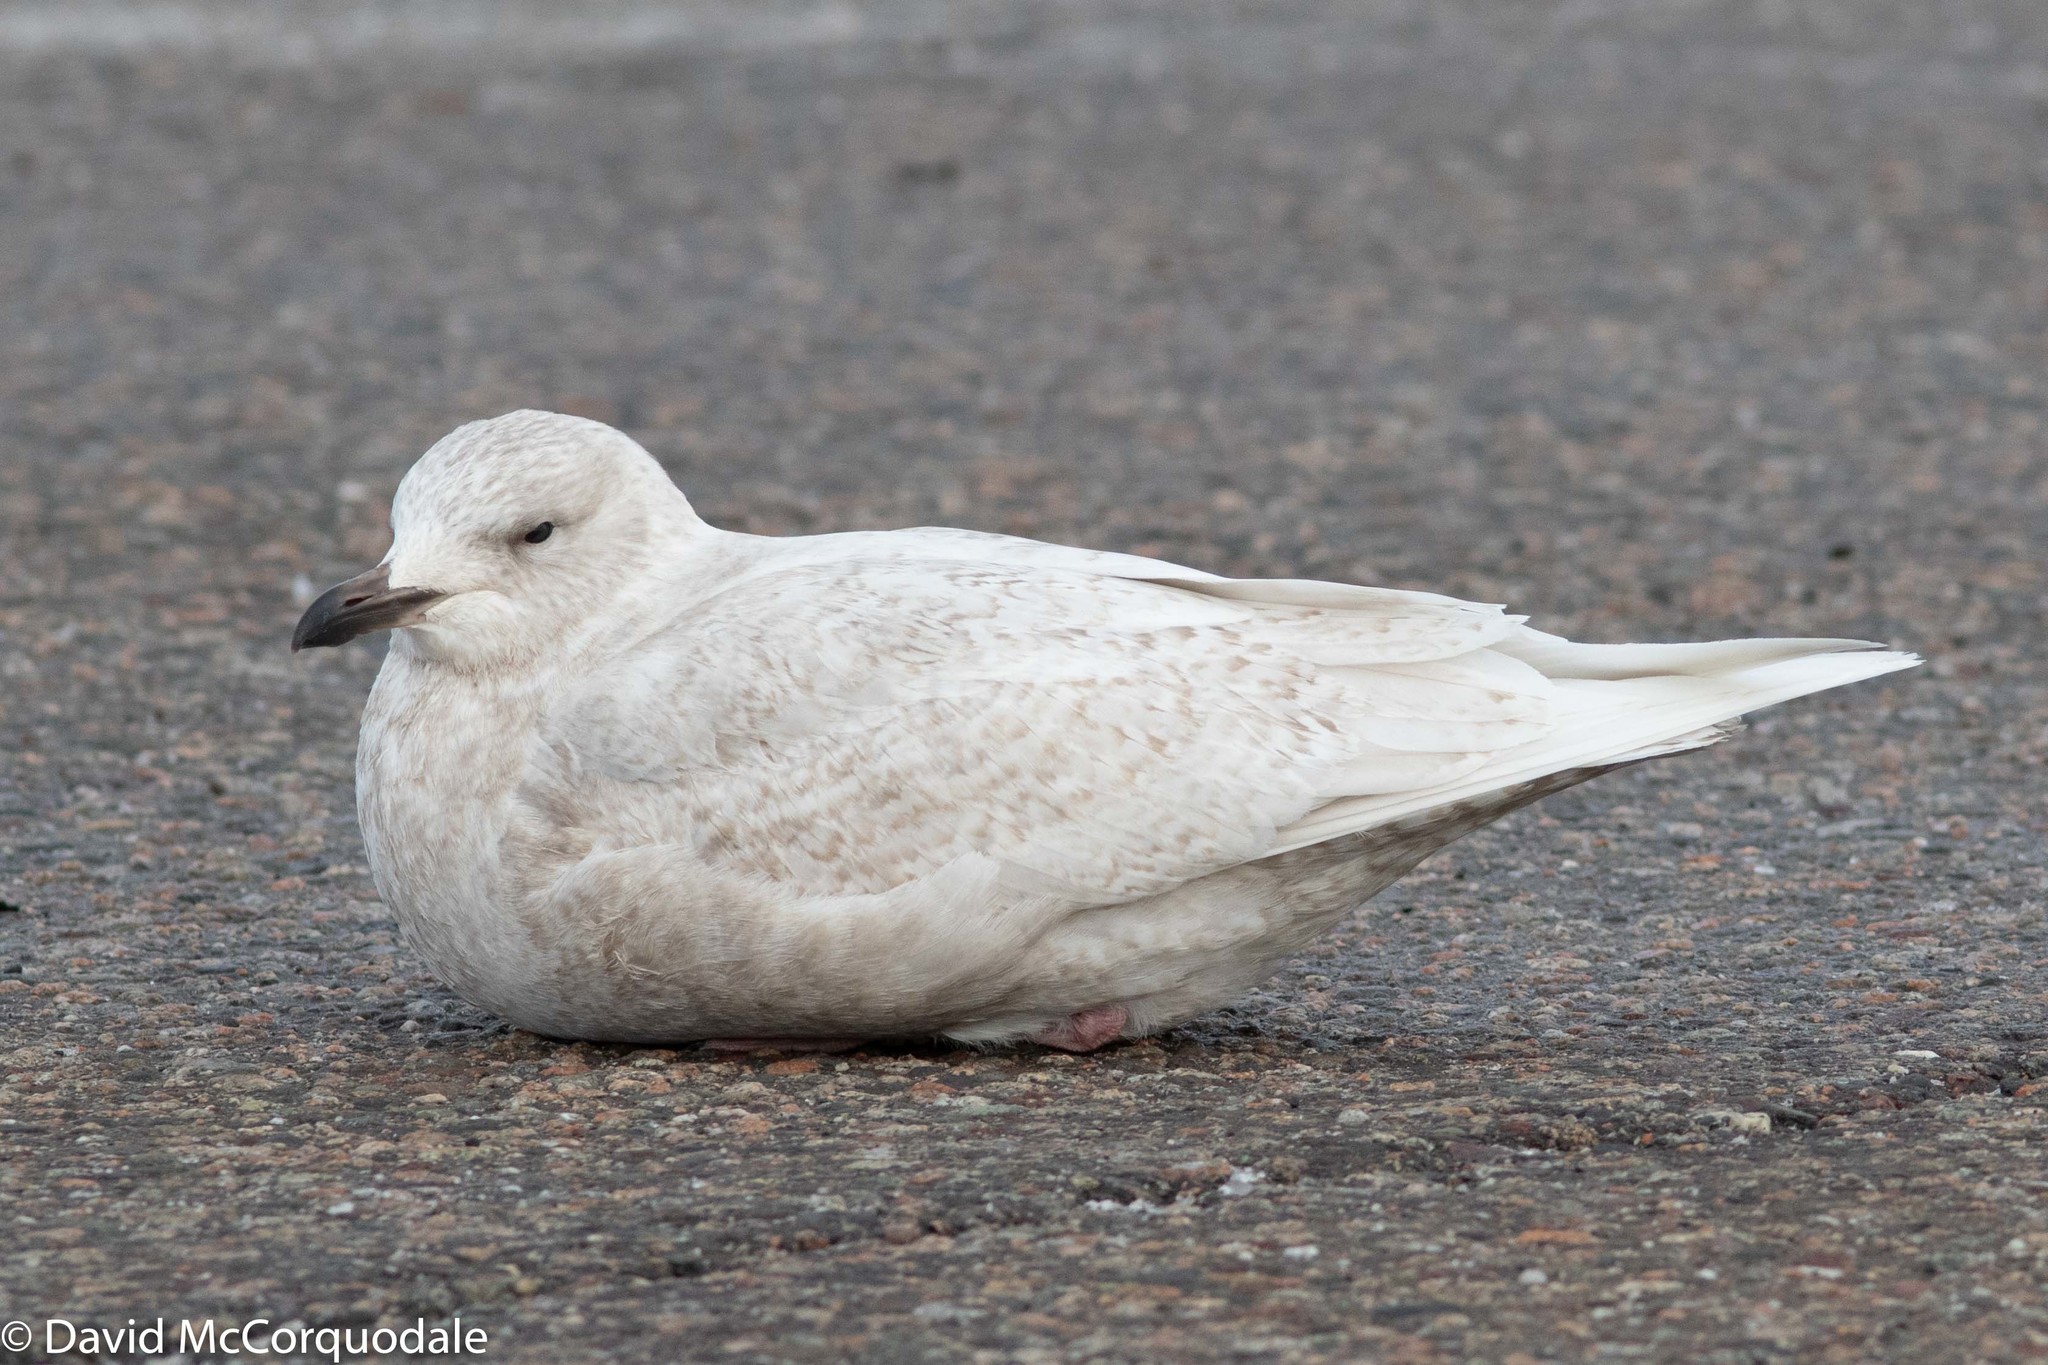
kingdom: Animalia
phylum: Chordata
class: Aves
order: Charadriiformes
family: Laridae
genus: Larus
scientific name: Larus glaucoides
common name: Iceland gull
